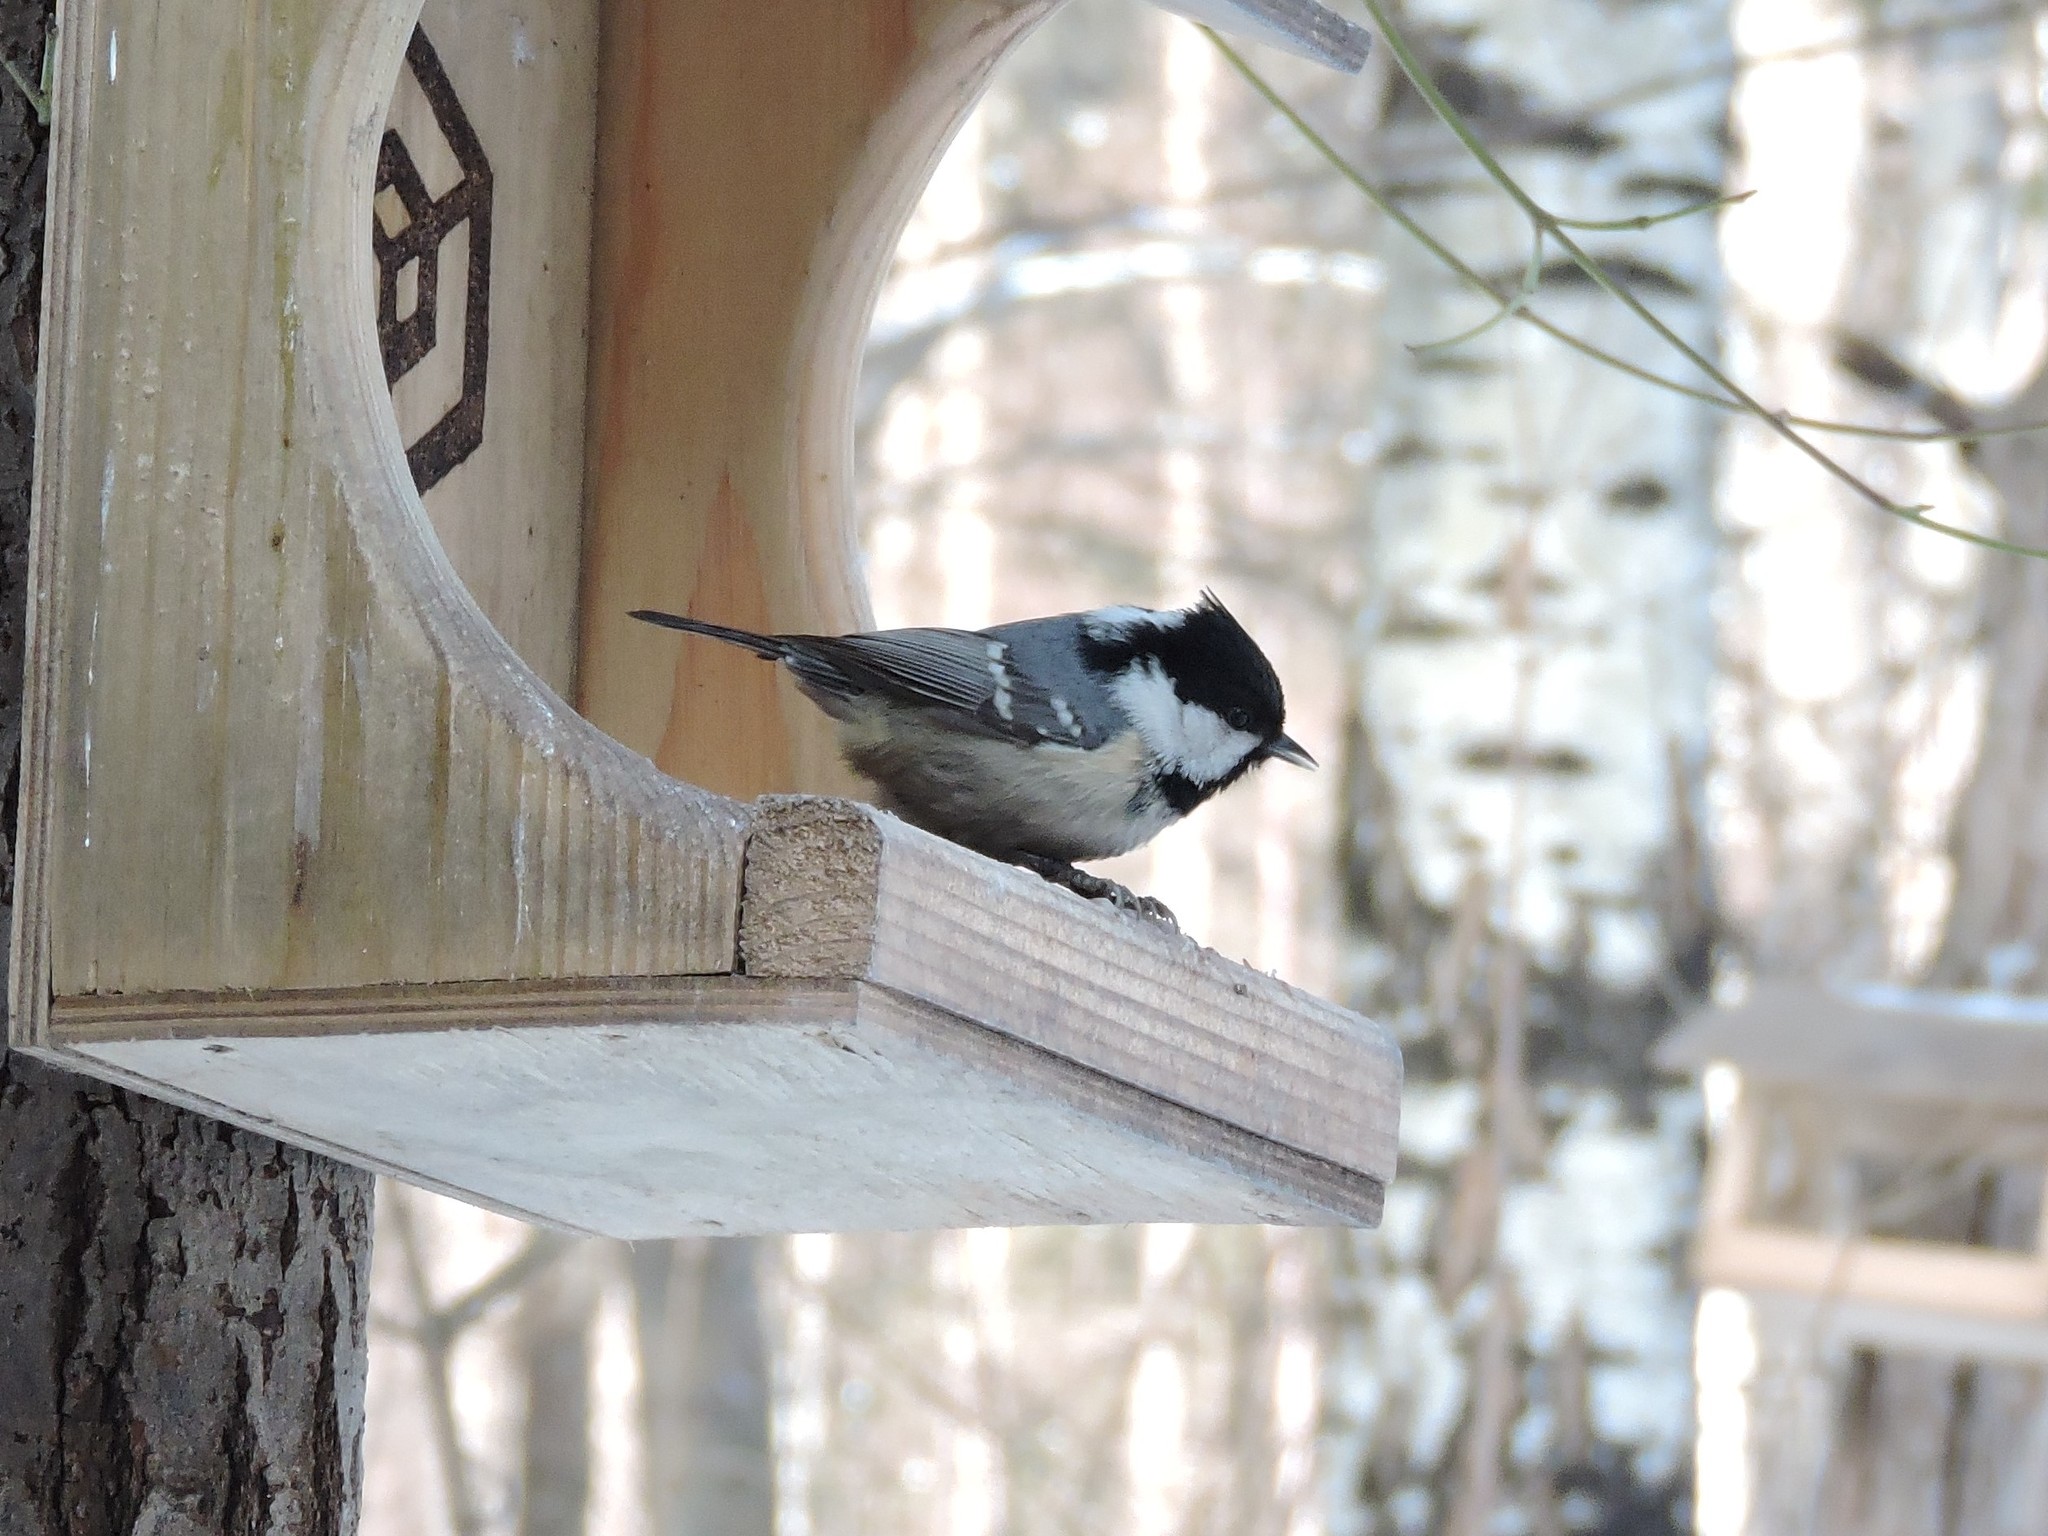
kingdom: Animalia
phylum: Chordata
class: Aves
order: Passeriformes
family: Paridae
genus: Periparus
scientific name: Periparus ater
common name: Coal tit
